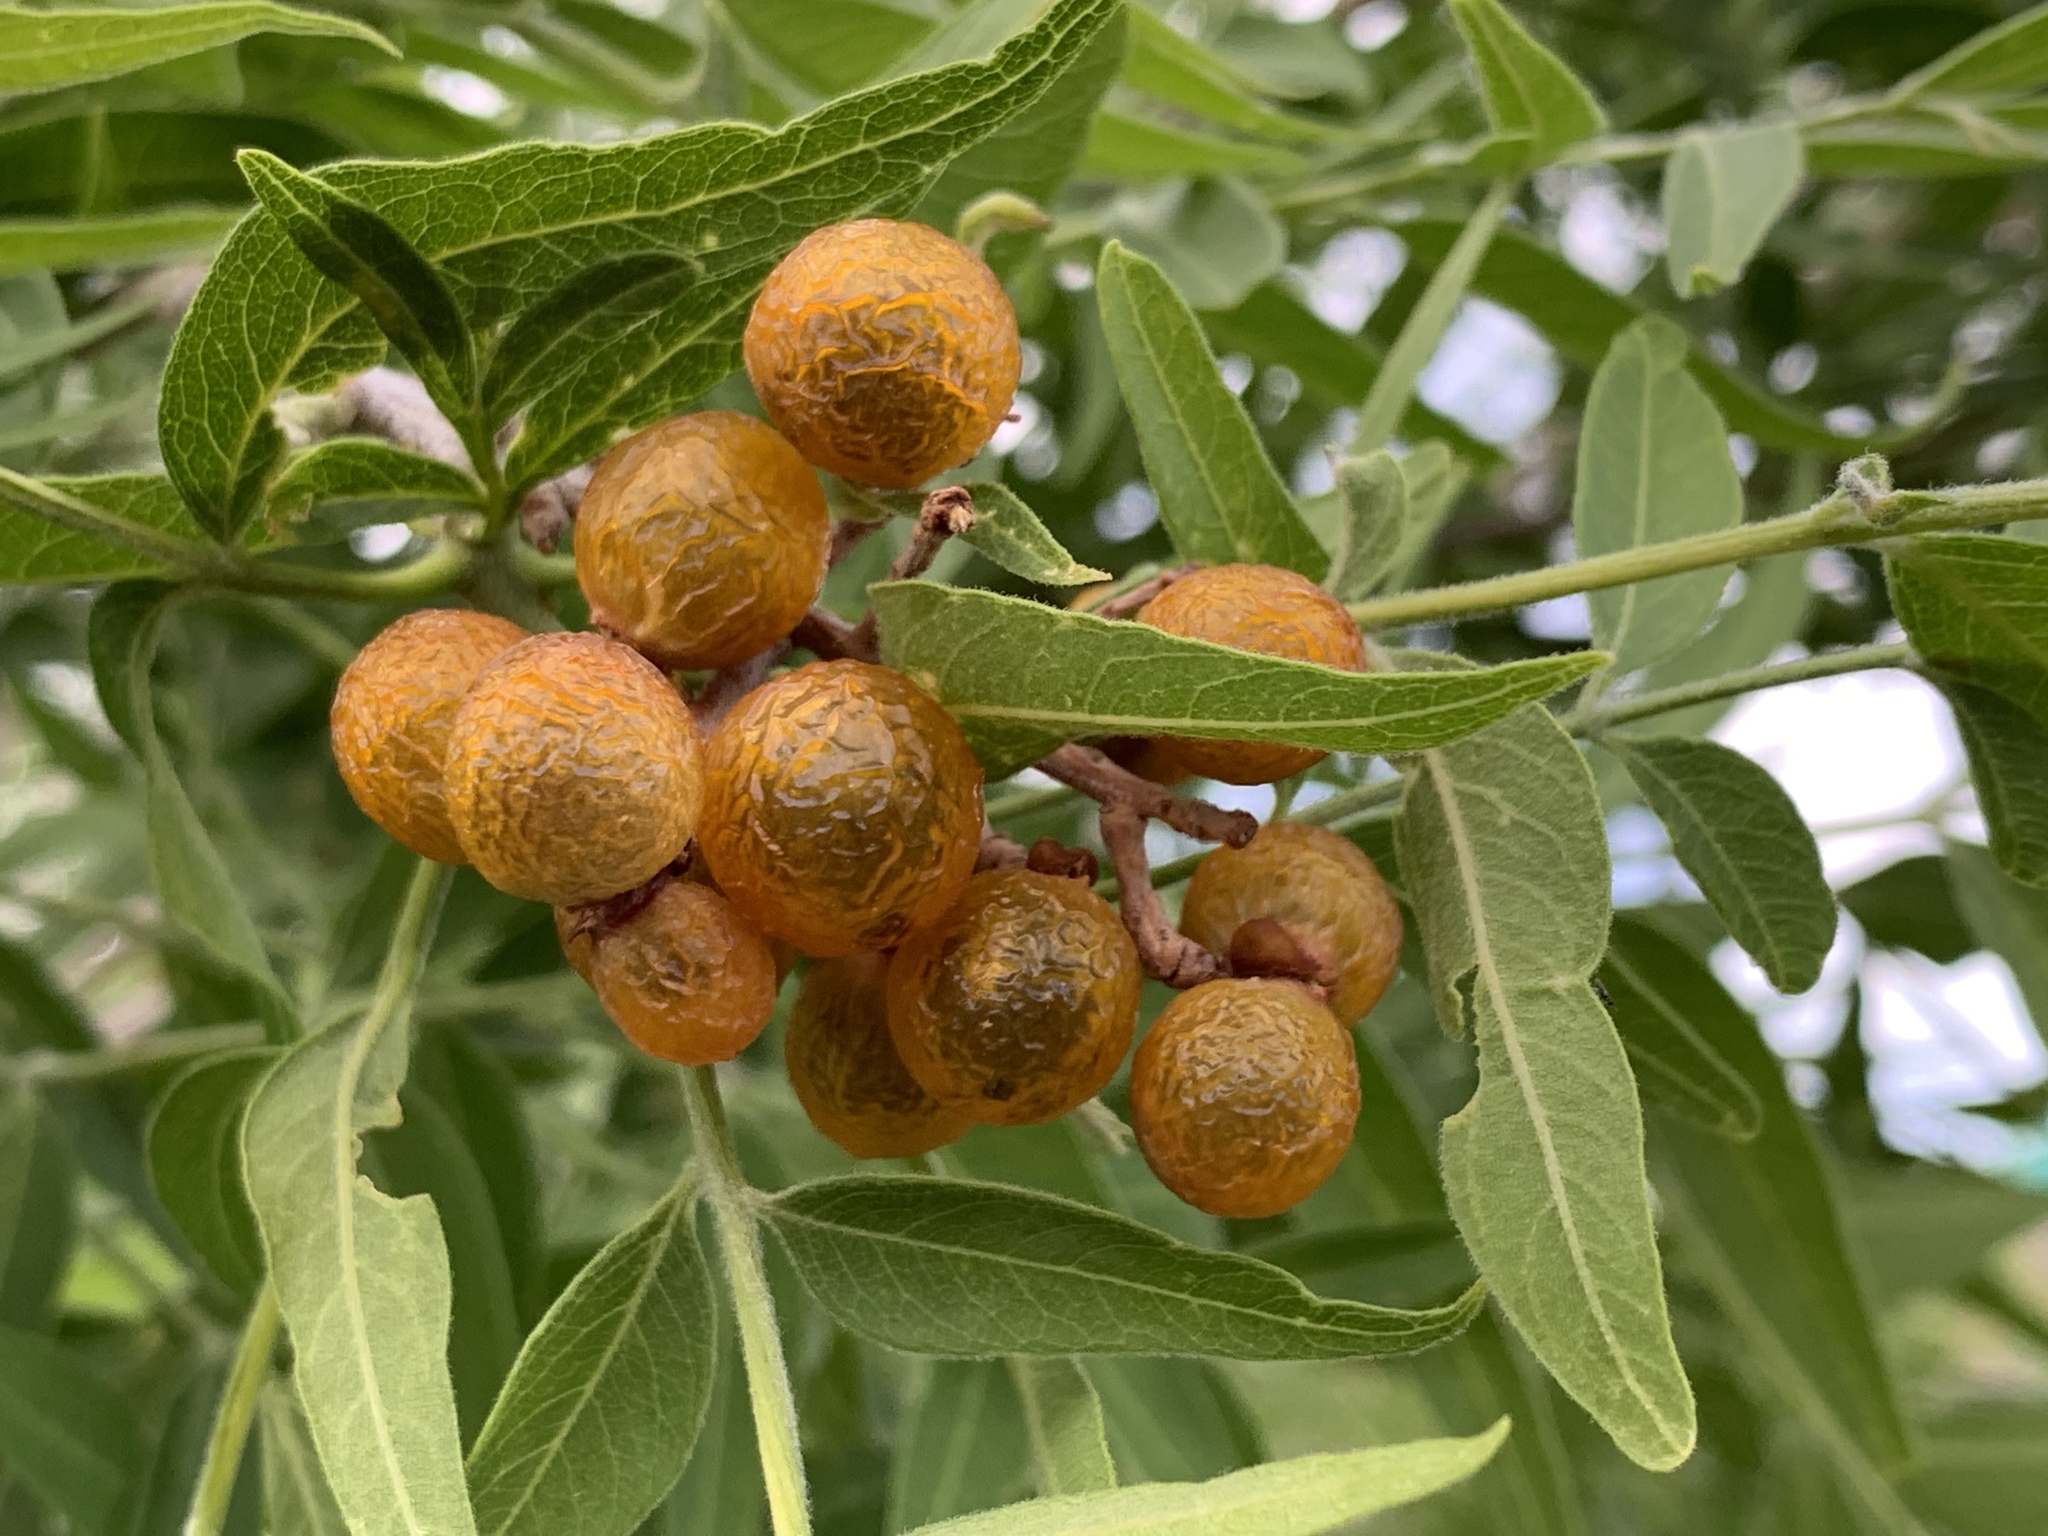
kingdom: Plantae
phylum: Tracheophyta
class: Magnoliopsida
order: Sapindales
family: Sapindaceae
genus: Sapindus
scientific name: Sapindus drummondii
